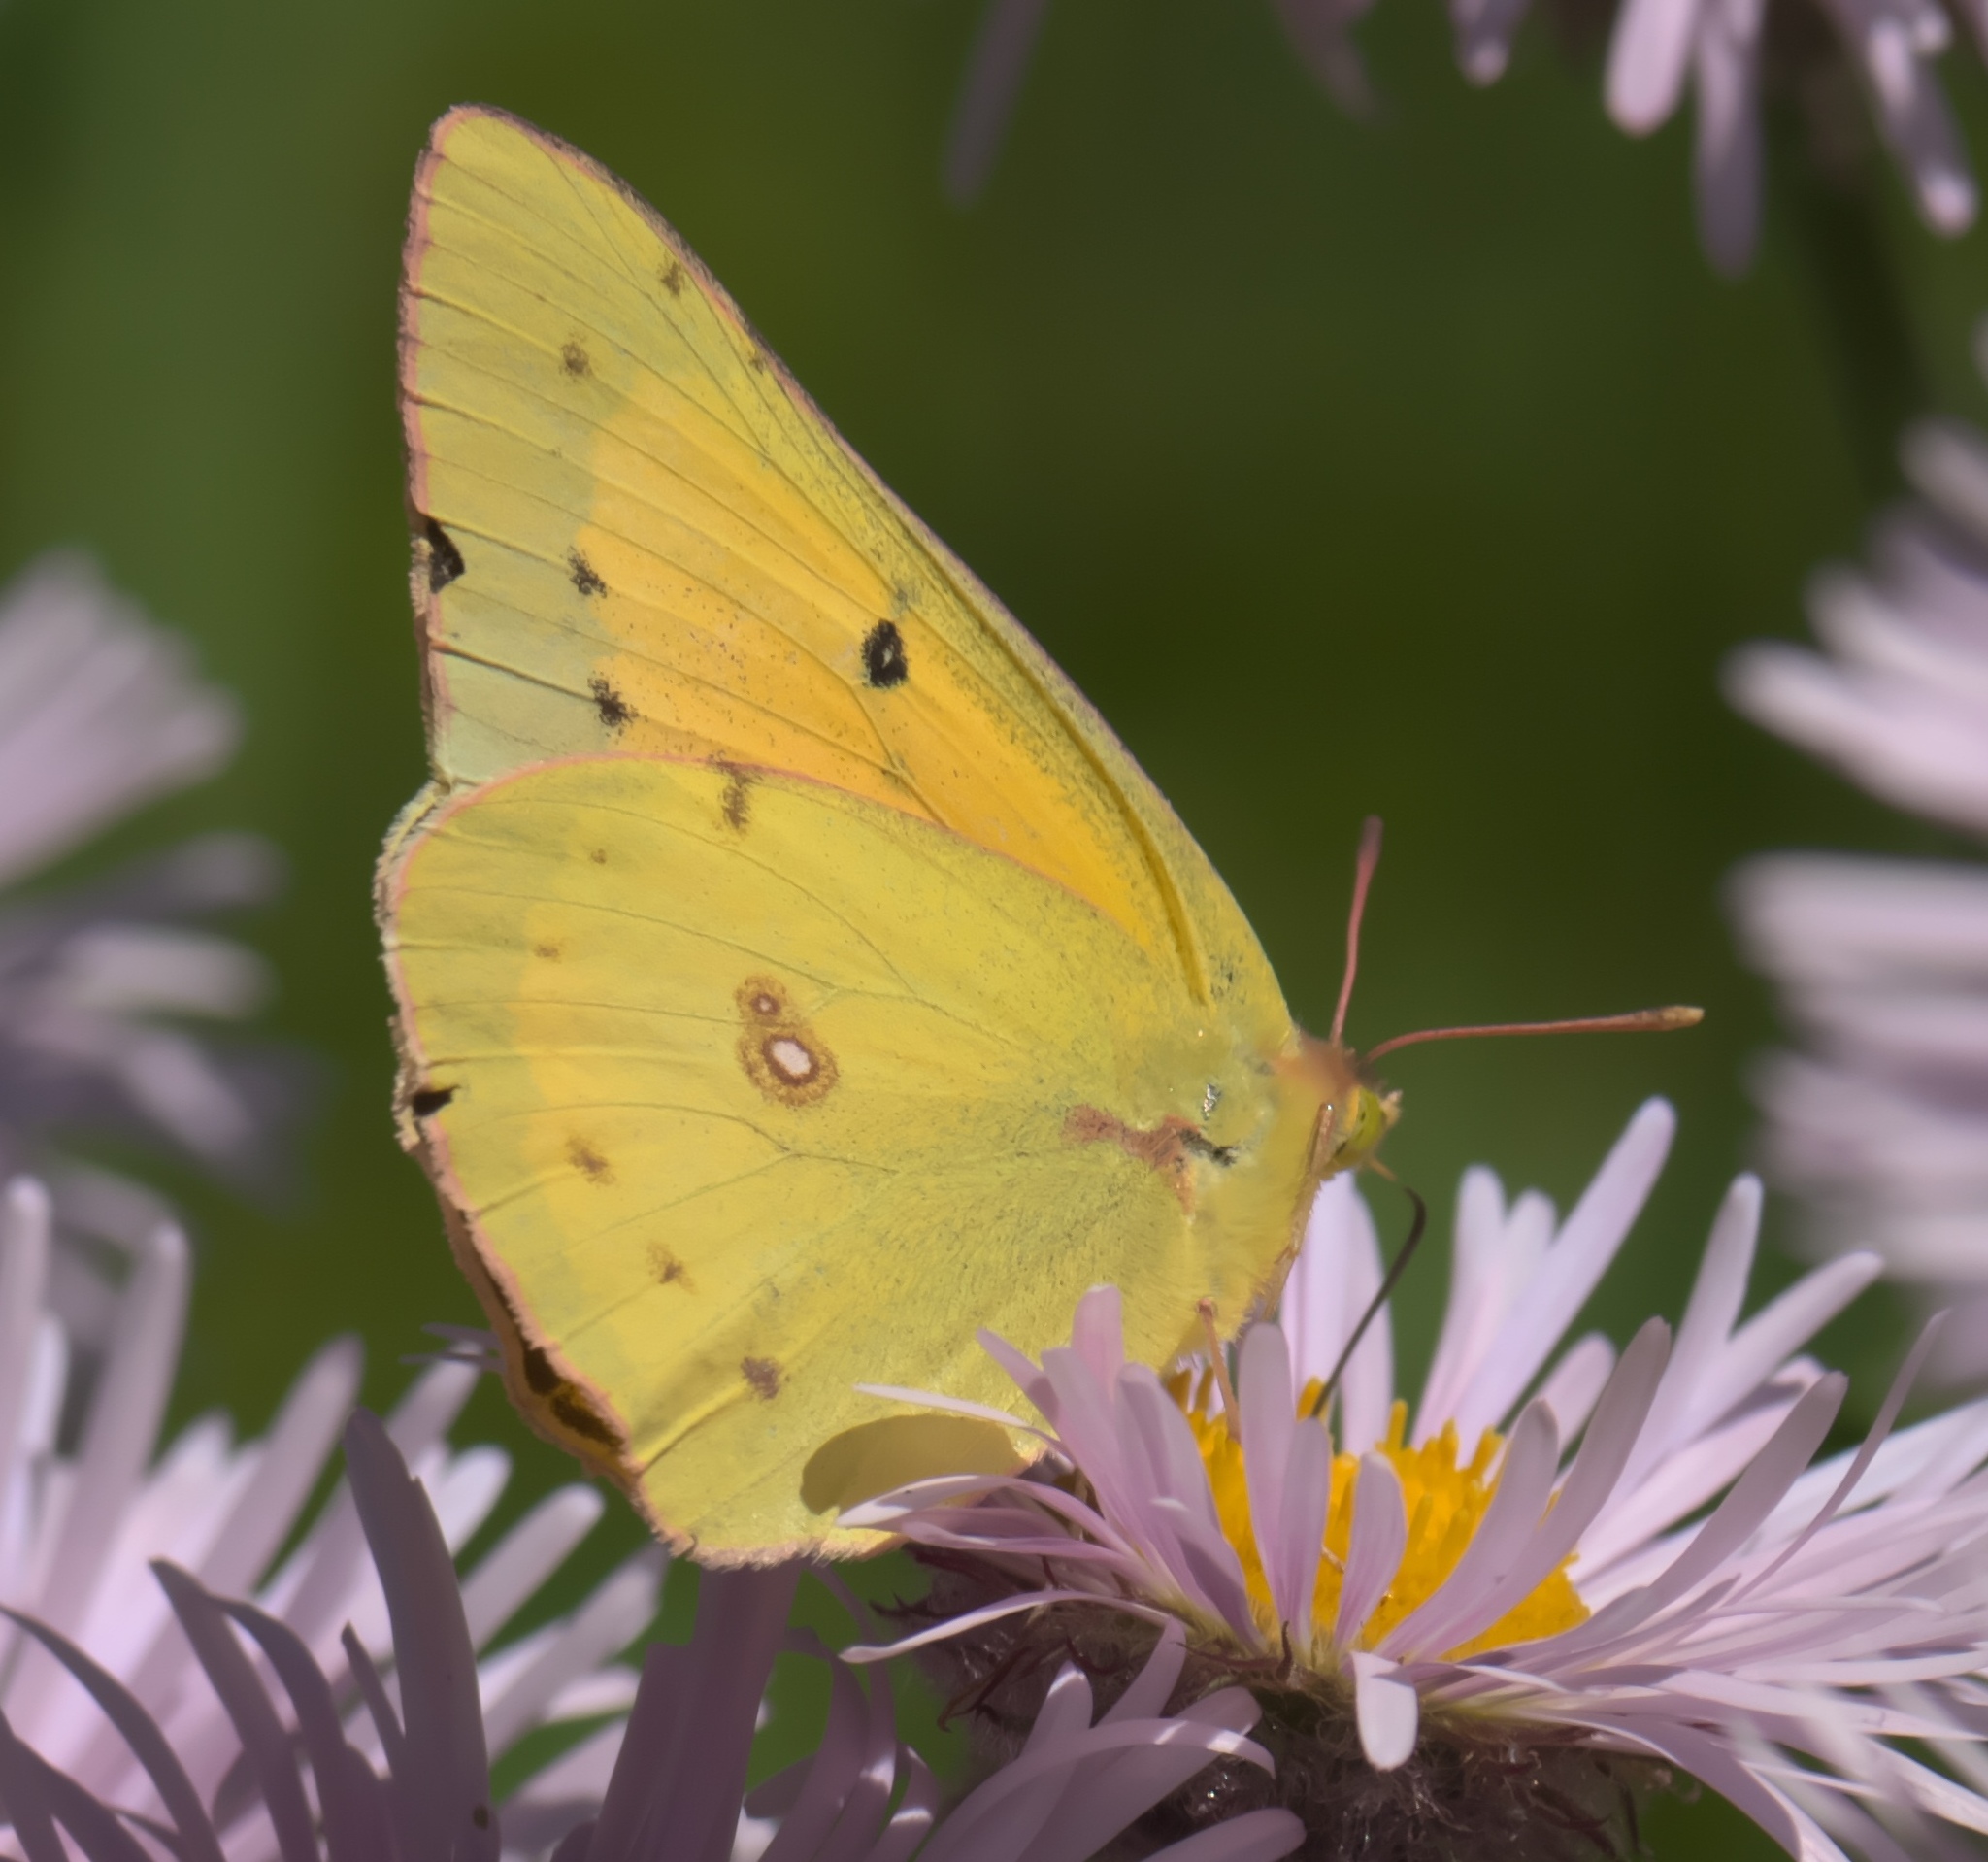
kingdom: Animalia
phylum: Arthropoda
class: Insecta
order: Lepidoptera
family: Pieridae
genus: Colias
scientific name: Colias eurytheme
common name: Alfalfa butterfly
